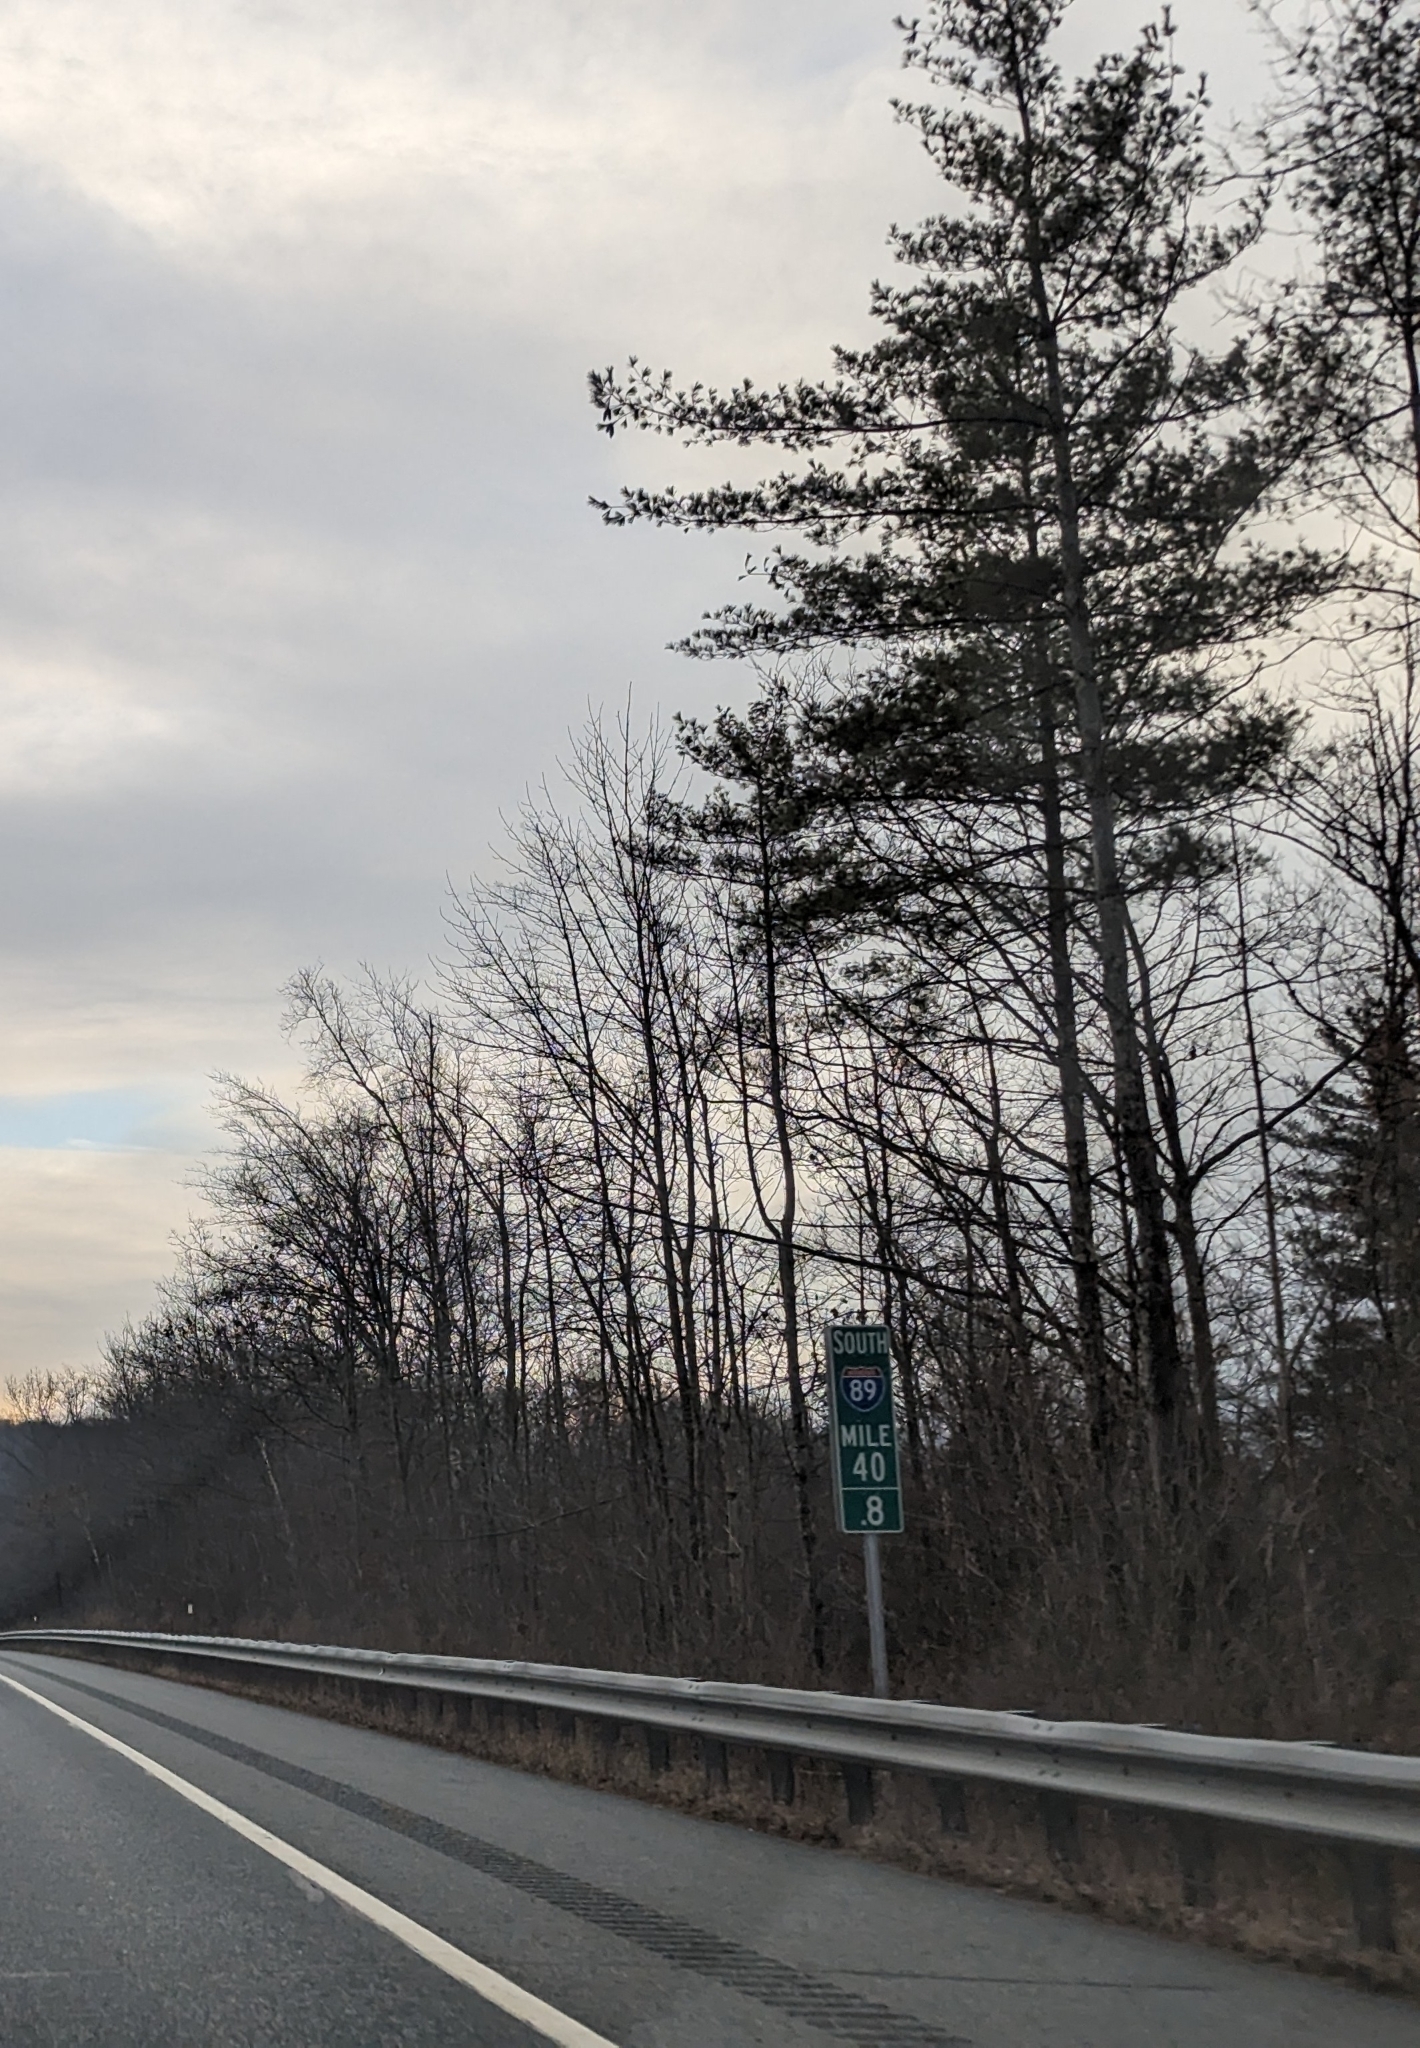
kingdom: Plantae
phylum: Tracheophyta
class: Pinopsida
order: Pinales
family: Pinaceae
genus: Pinus
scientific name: Pinus strobus
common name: Weymouth pine
